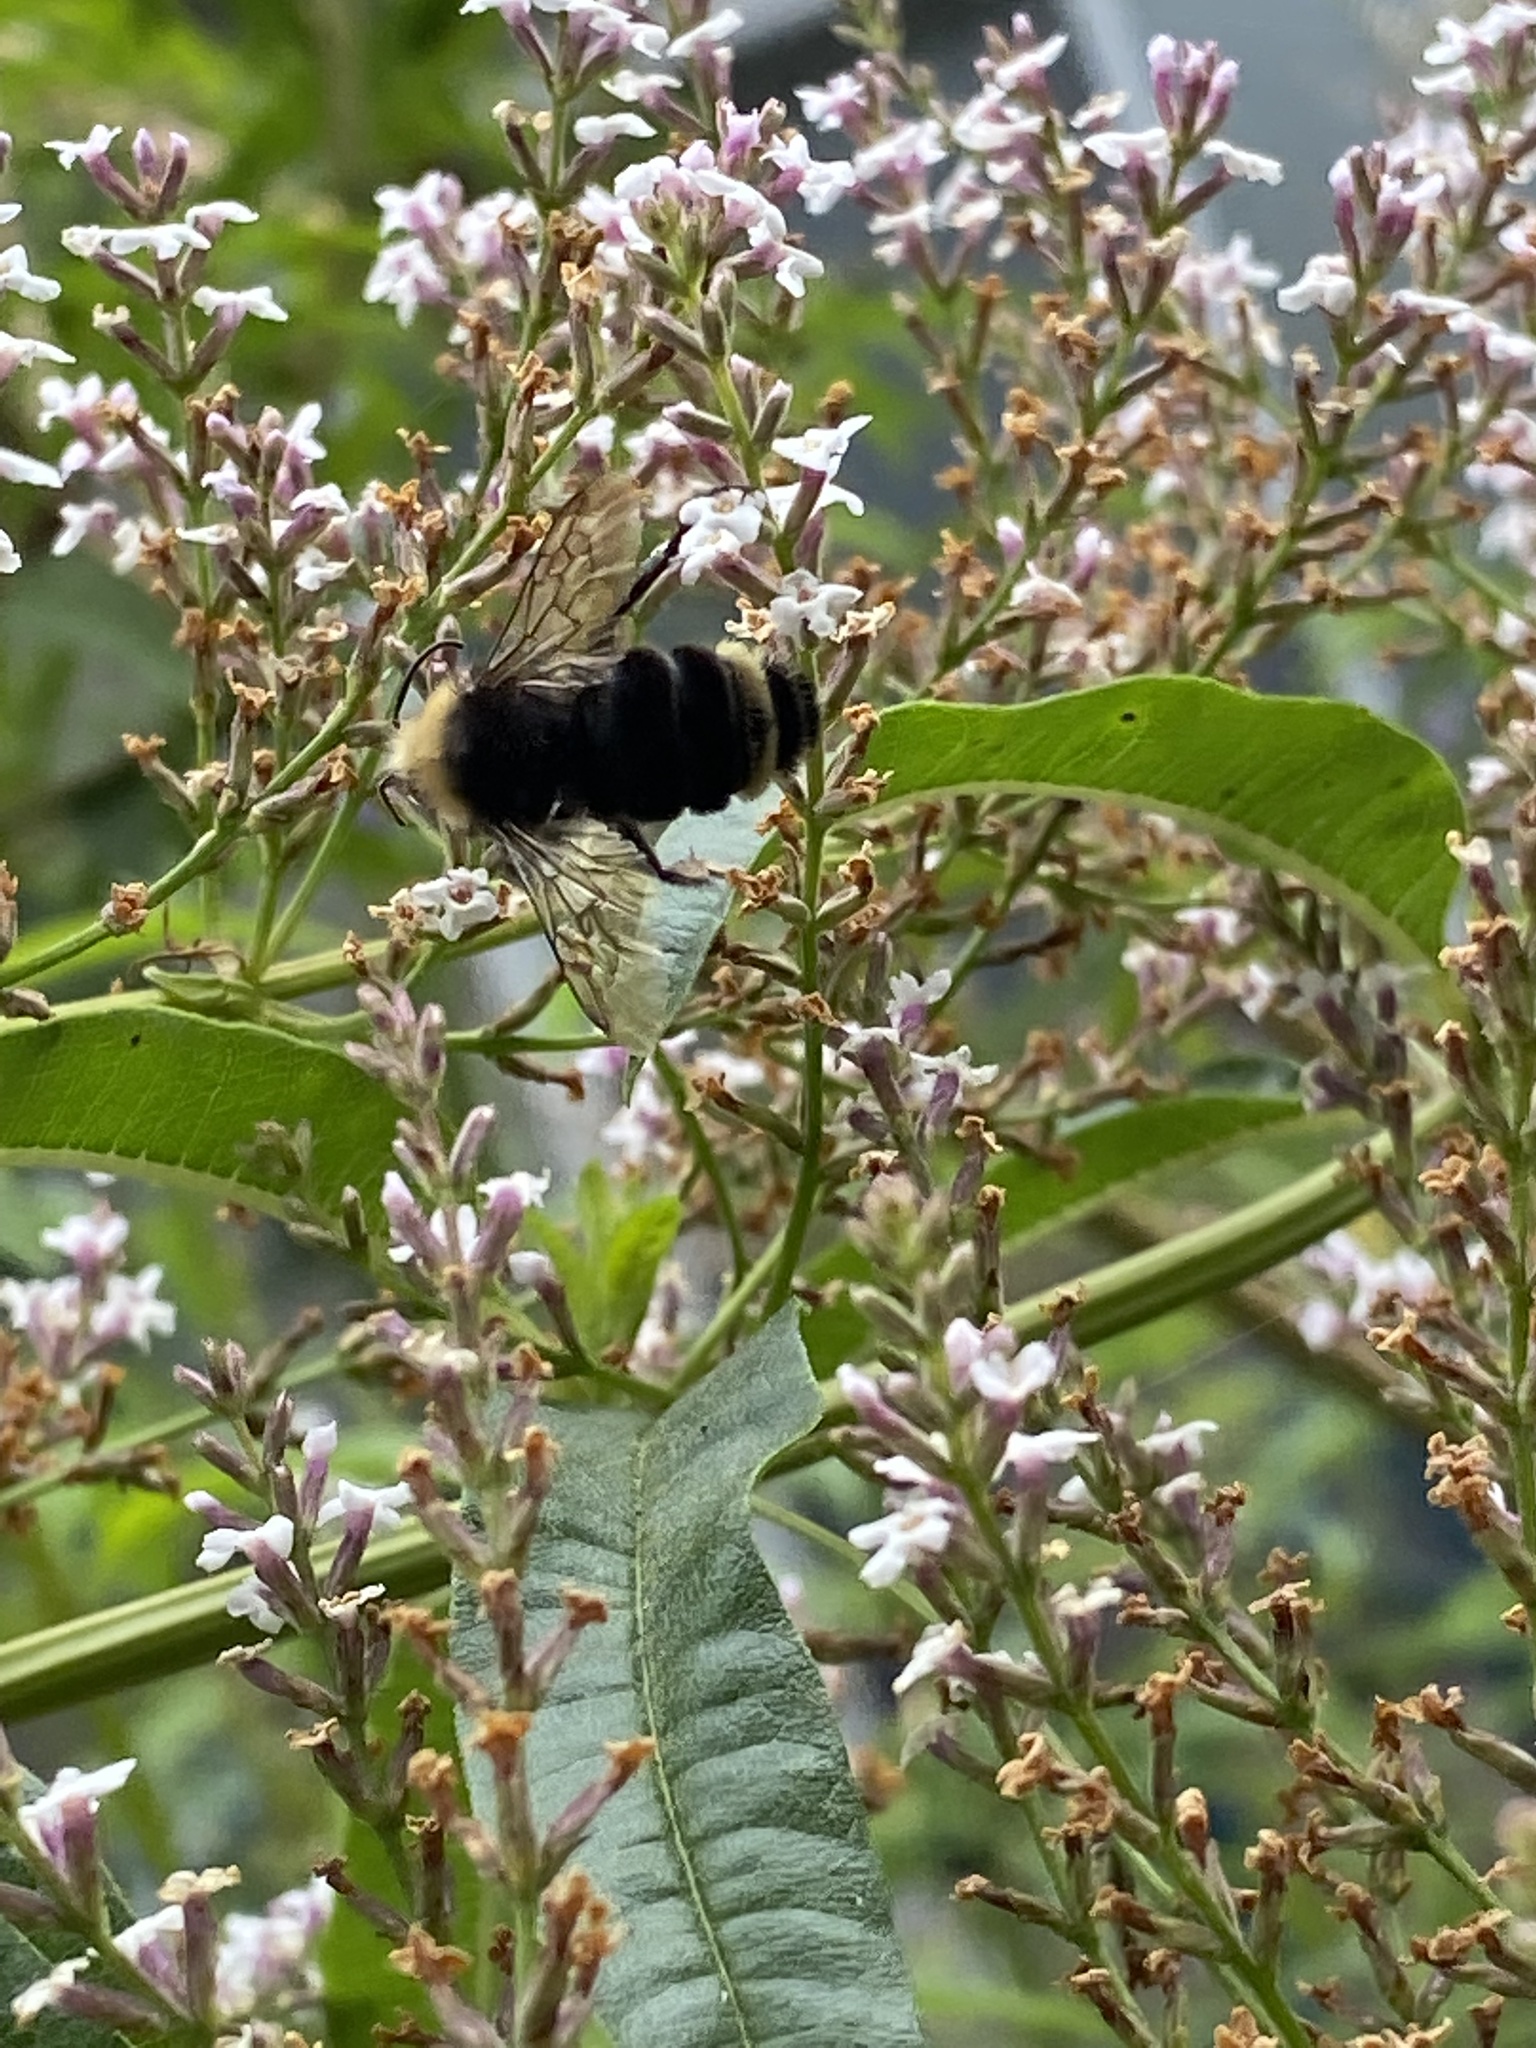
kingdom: Animalia
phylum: Arthropoda
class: Insecta
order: Hymenoptera
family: Apidae
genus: Bombus
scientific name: Bombus vosnesenskii
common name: Vosnesensky bumble bee
